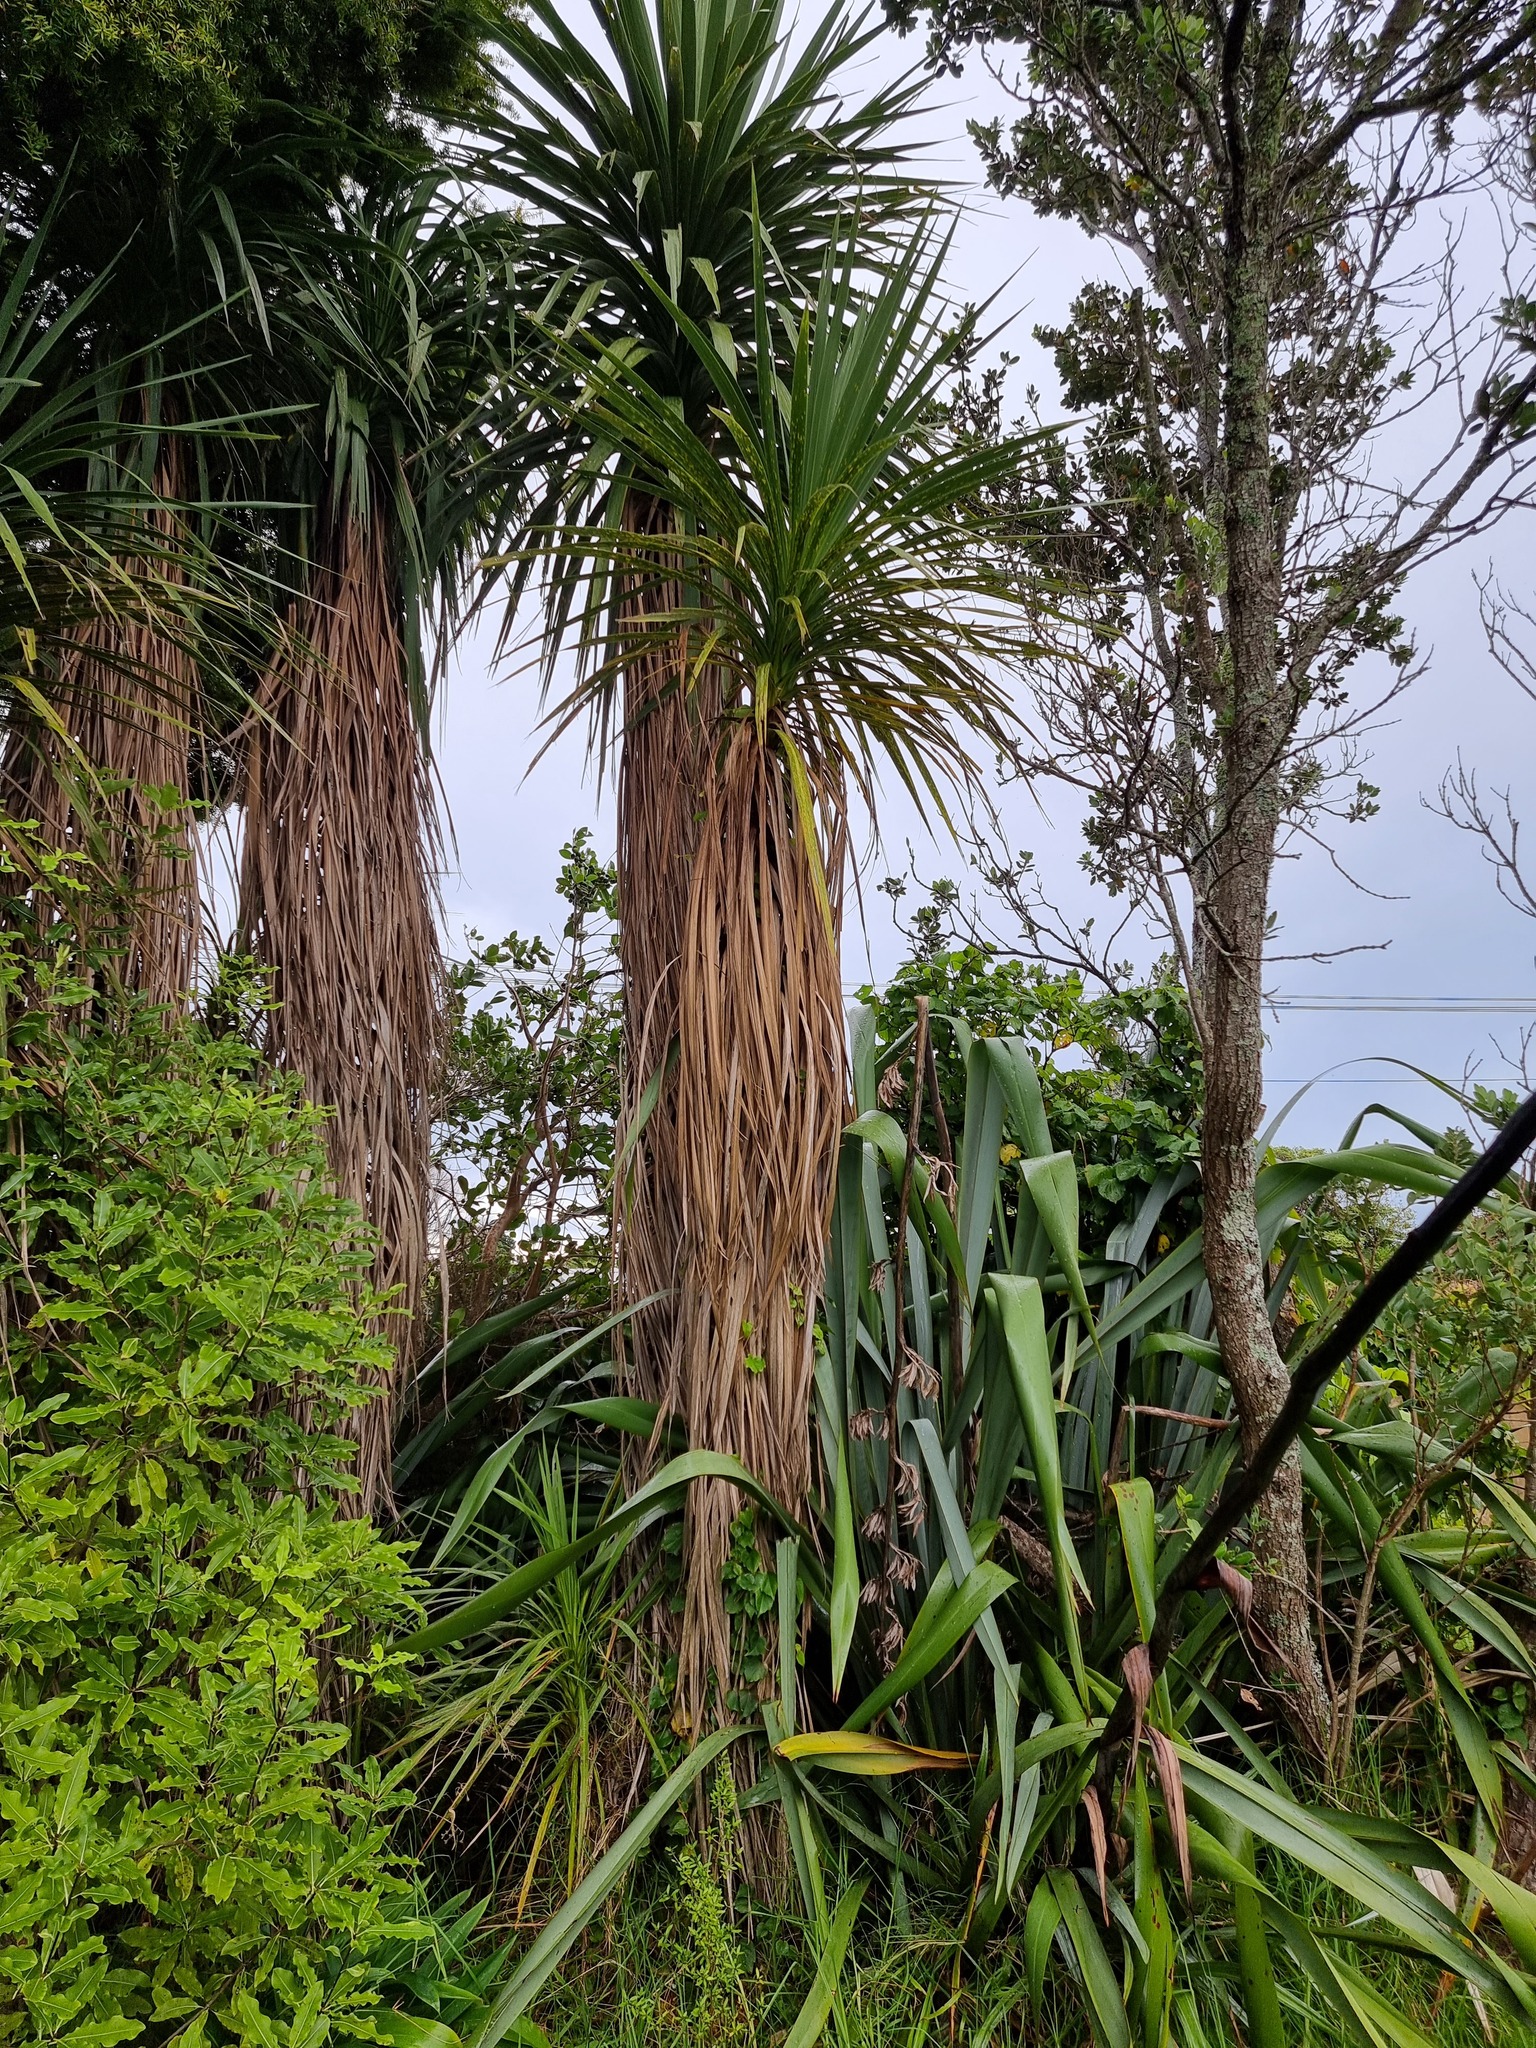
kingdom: Plantae
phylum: Tracheophyta
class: Liliopsida
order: Asparagales
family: Asparagaceae
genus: Cordyline
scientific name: Cordyline australis
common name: Cabbage-palm
